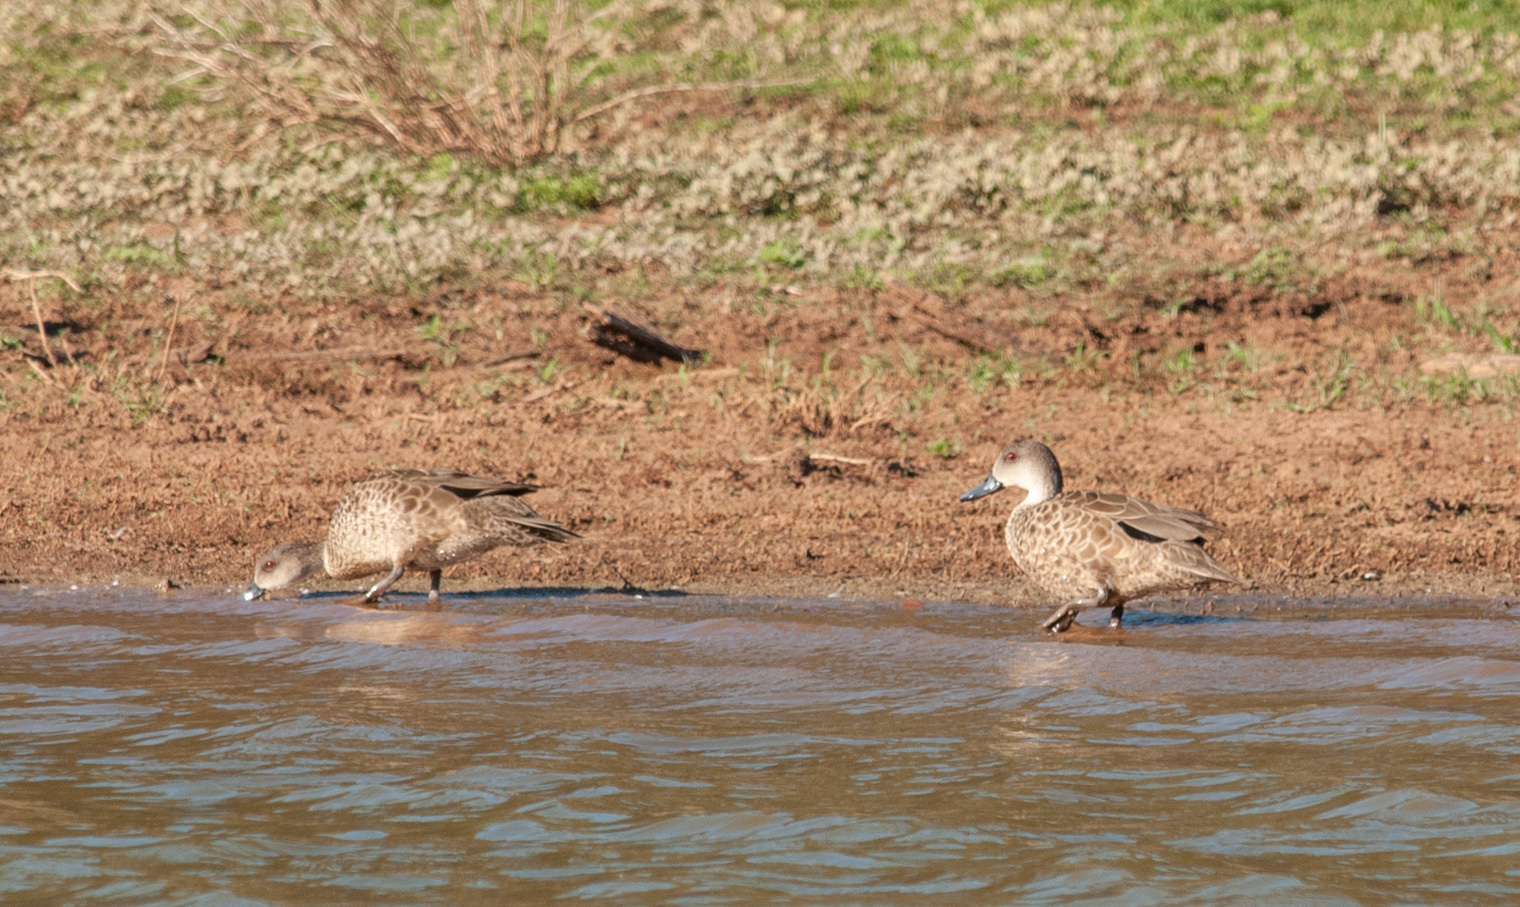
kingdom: Animalia
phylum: Chordata
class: Aves
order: Anseriformes
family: Anatidae
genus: Anas
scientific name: Anas gracilis
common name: Grey teal
